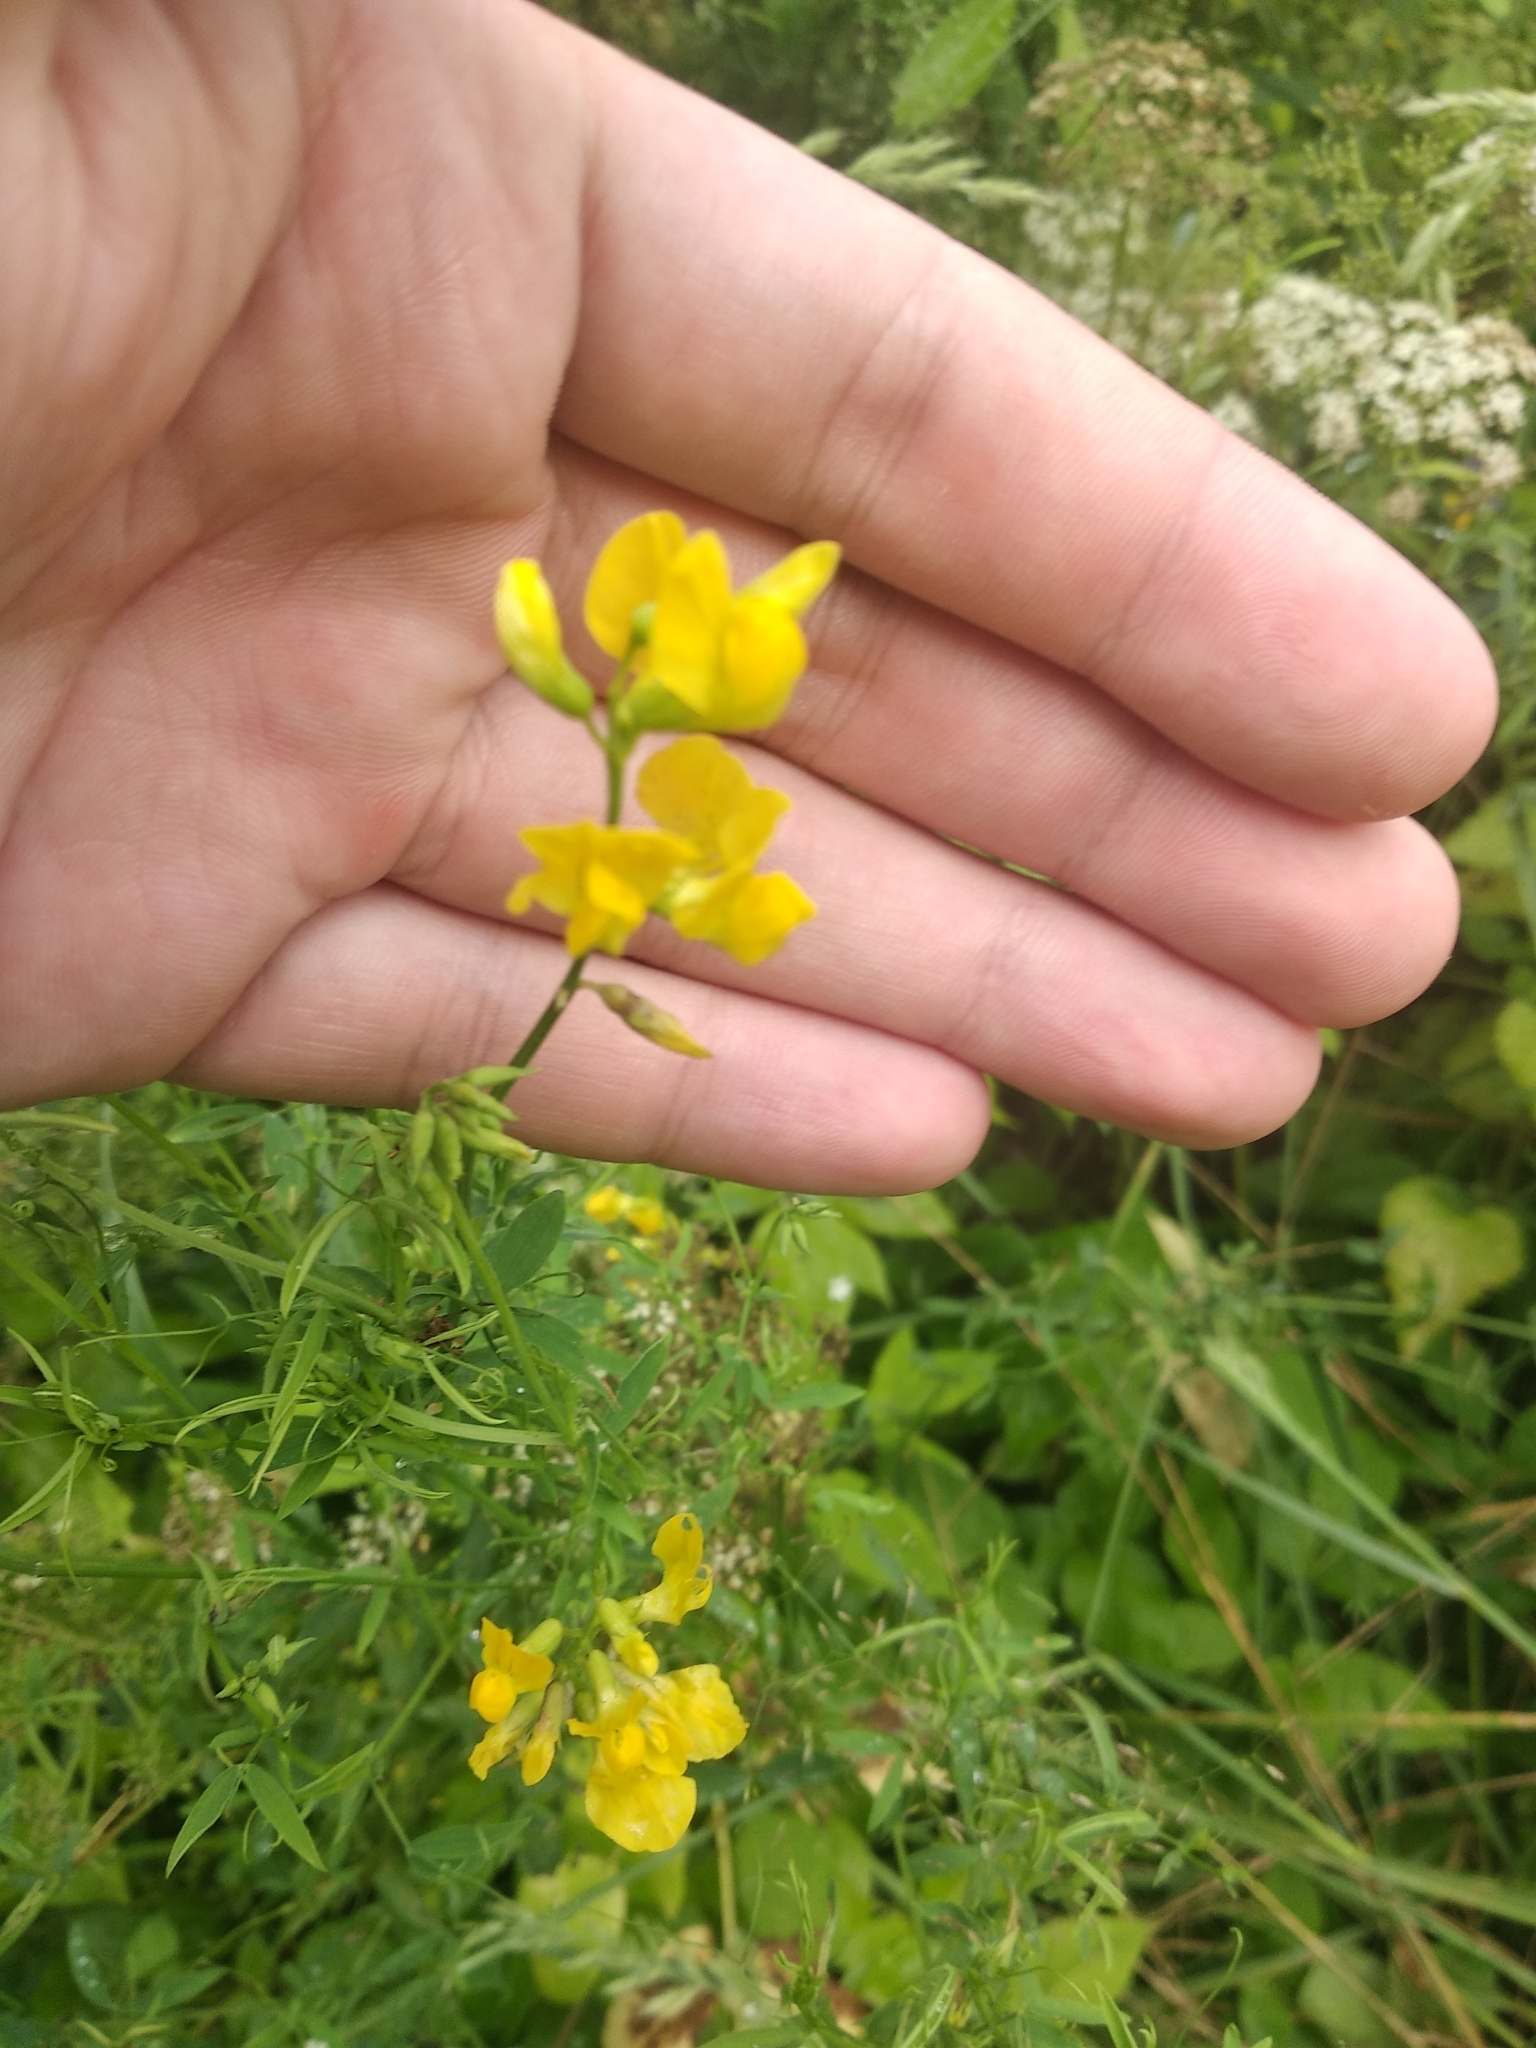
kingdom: Plantae
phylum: Tracheophyta
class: Magnoliopsida
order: Fabales
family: Fabaceae
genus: Lathyrus
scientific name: Lathyrus pratensis
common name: Meadow vetchling
